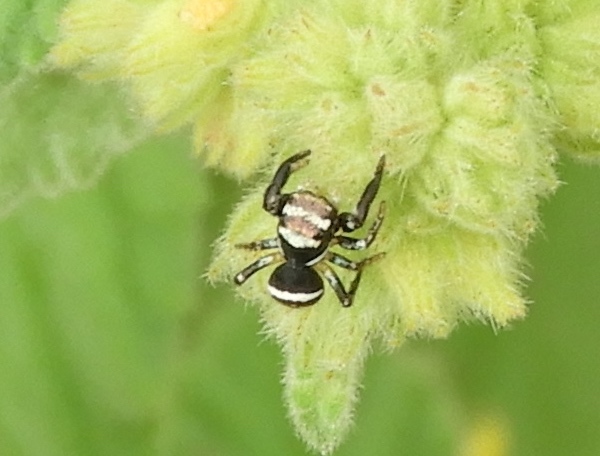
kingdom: Animalia
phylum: Arthropoda
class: Arachnida
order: Araneae
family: Salticidae
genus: Sassacus
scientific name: Sassacus
